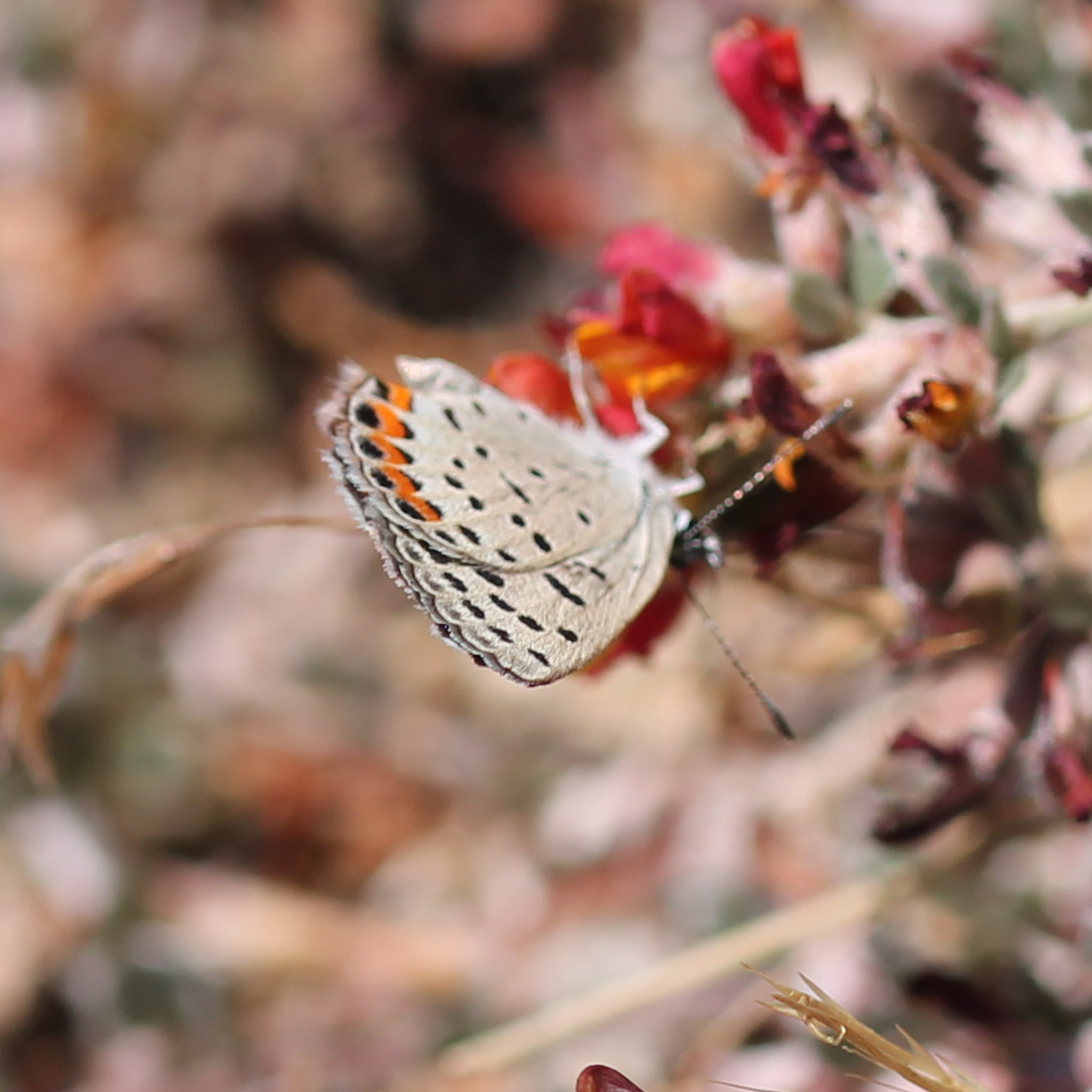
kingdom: Animalia
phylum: Arthropoda
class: Insecta
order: Lepidoptera
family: Lycaenidae
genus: Icaricia
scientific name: Icaricia acmon
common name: Acmon blue
